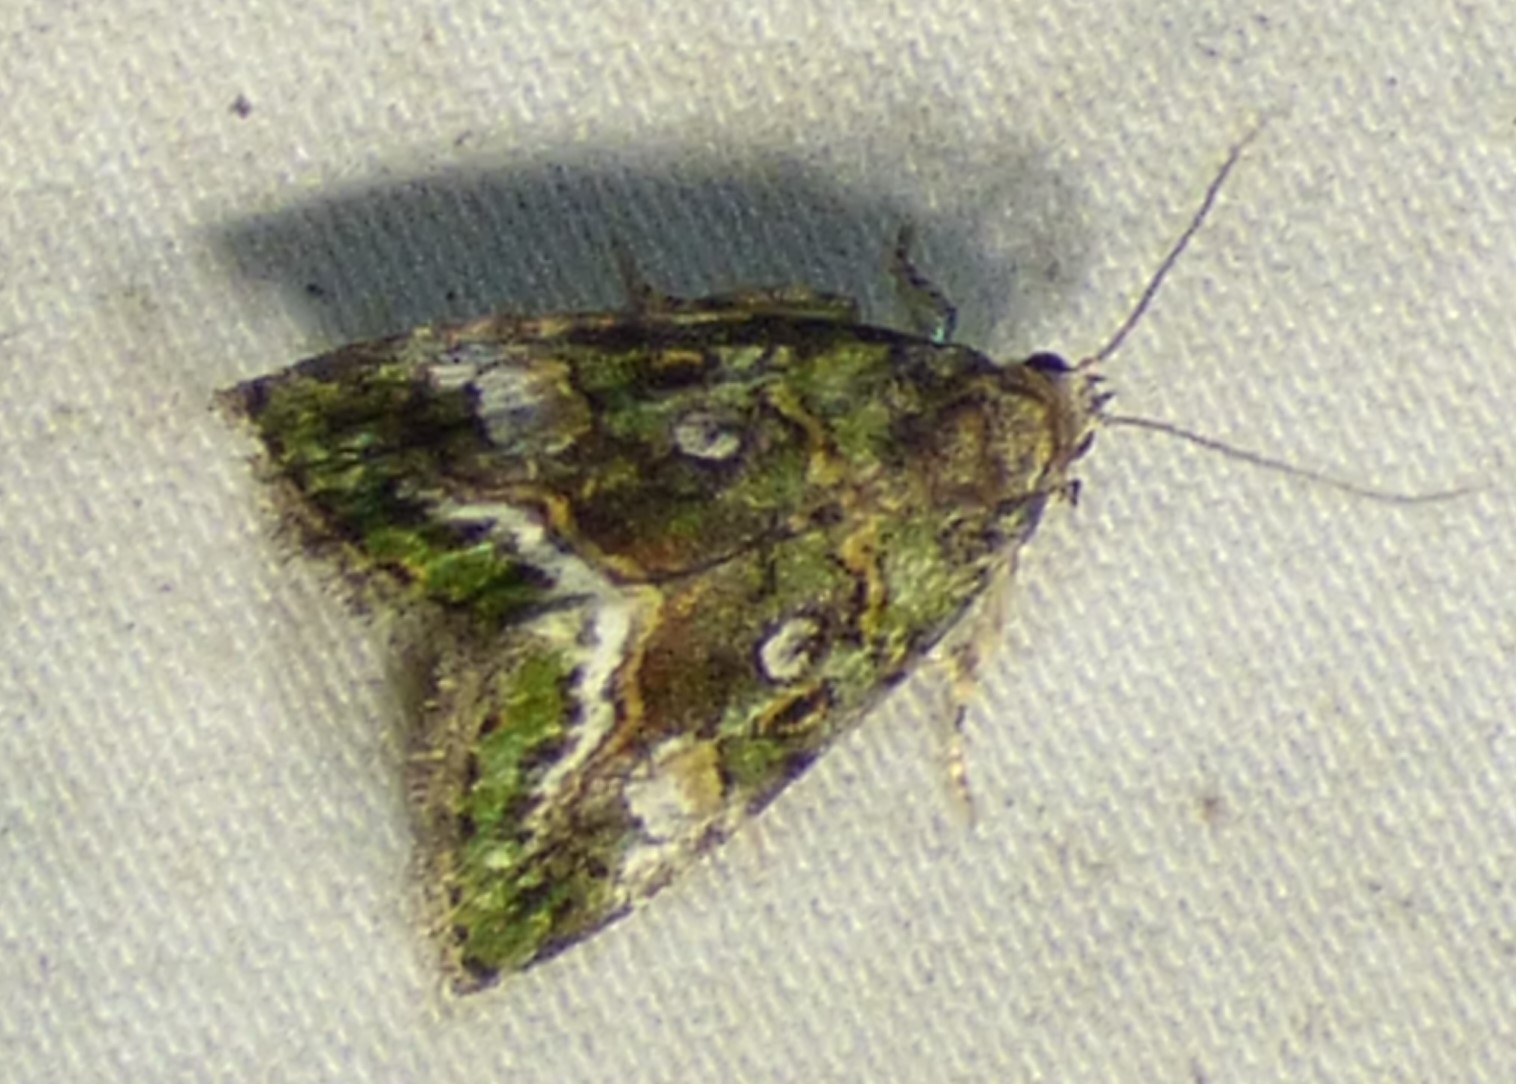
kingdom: Animalia
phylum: Arthropoda
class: Insecta
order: Lepidoptera
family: Noctuidae
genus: Lithacodia
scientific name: Lithacodia musta
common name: Small mossy glyph
